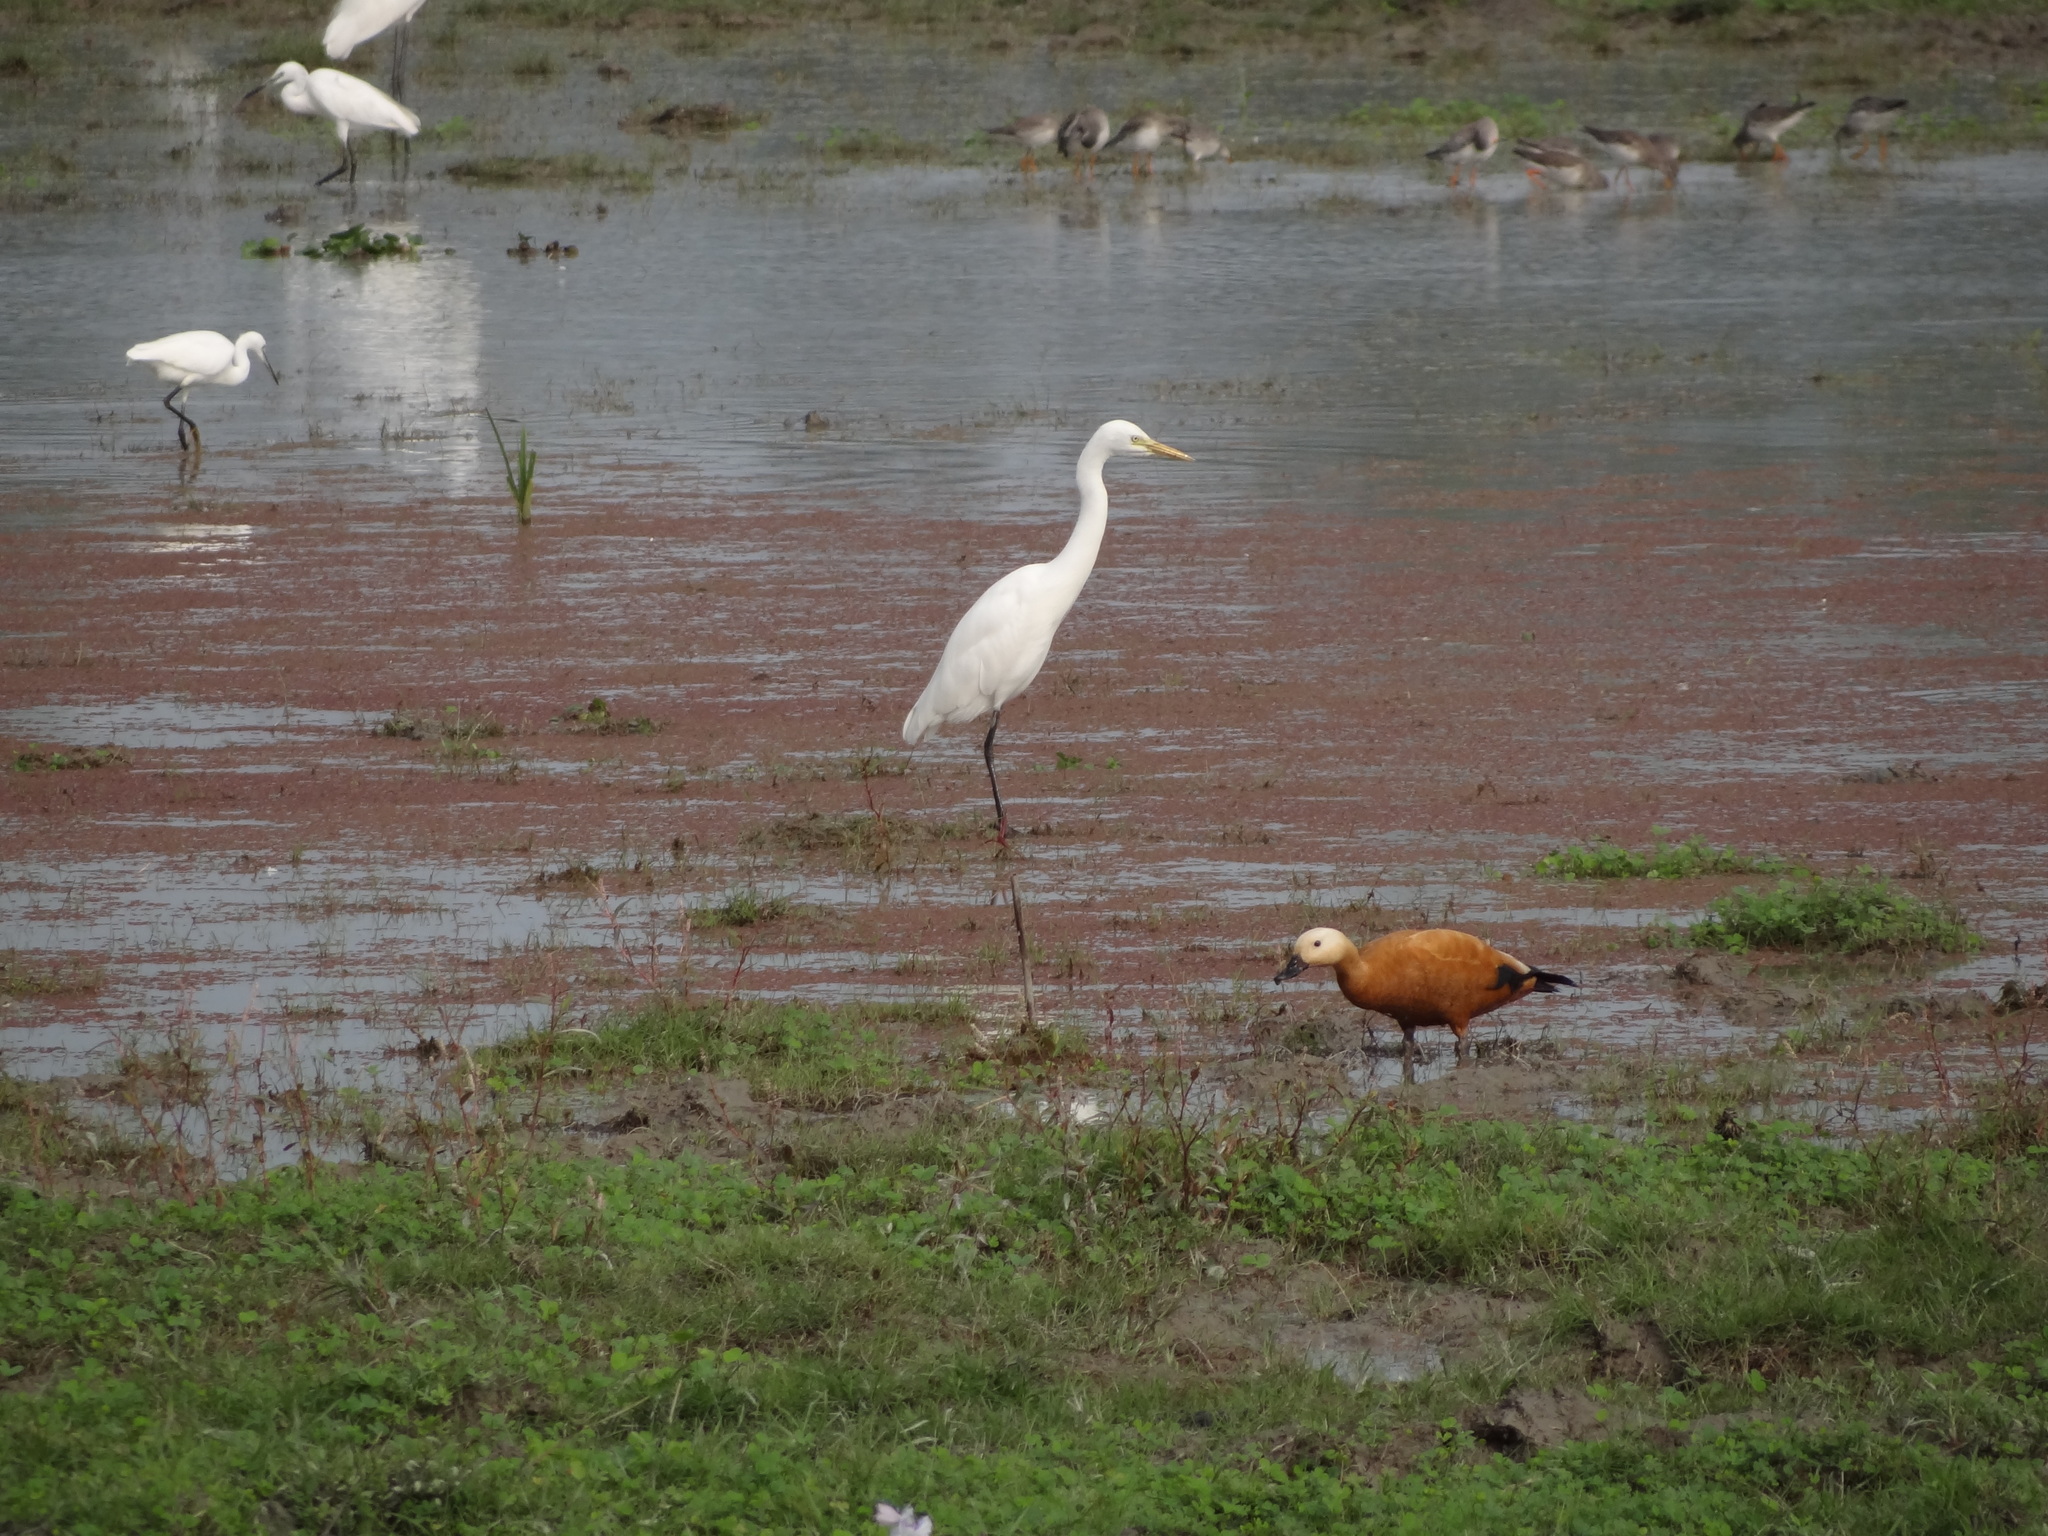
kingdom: Animalia
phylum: Chordata
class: Aves
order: Pelecaniformes
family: Ardeidae
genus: Egretta
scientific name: Egretta intermedia
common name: Intermediate egret
